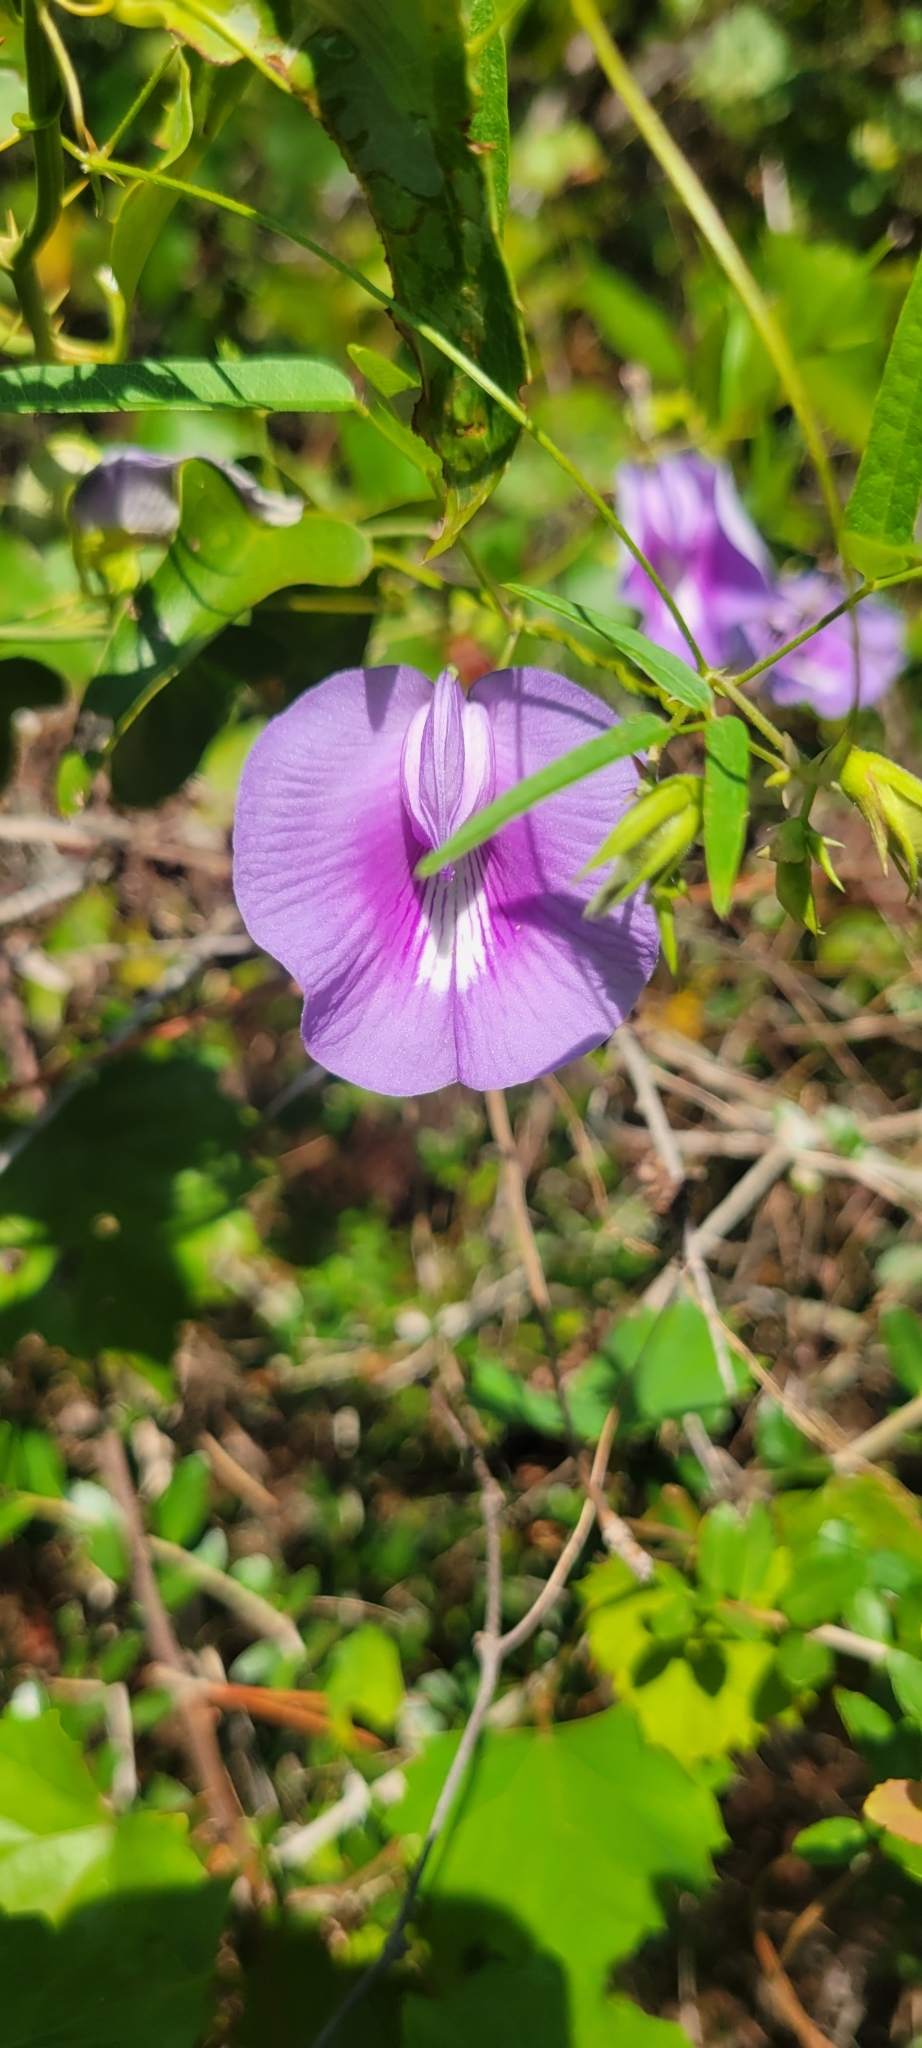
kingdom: Plantae
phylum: Tracheophyta
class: Magnoliopsida
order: Fabales
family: Fabaceae
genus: Centrosema
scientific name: Centrosema virginianum
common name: Butterfly-pea
